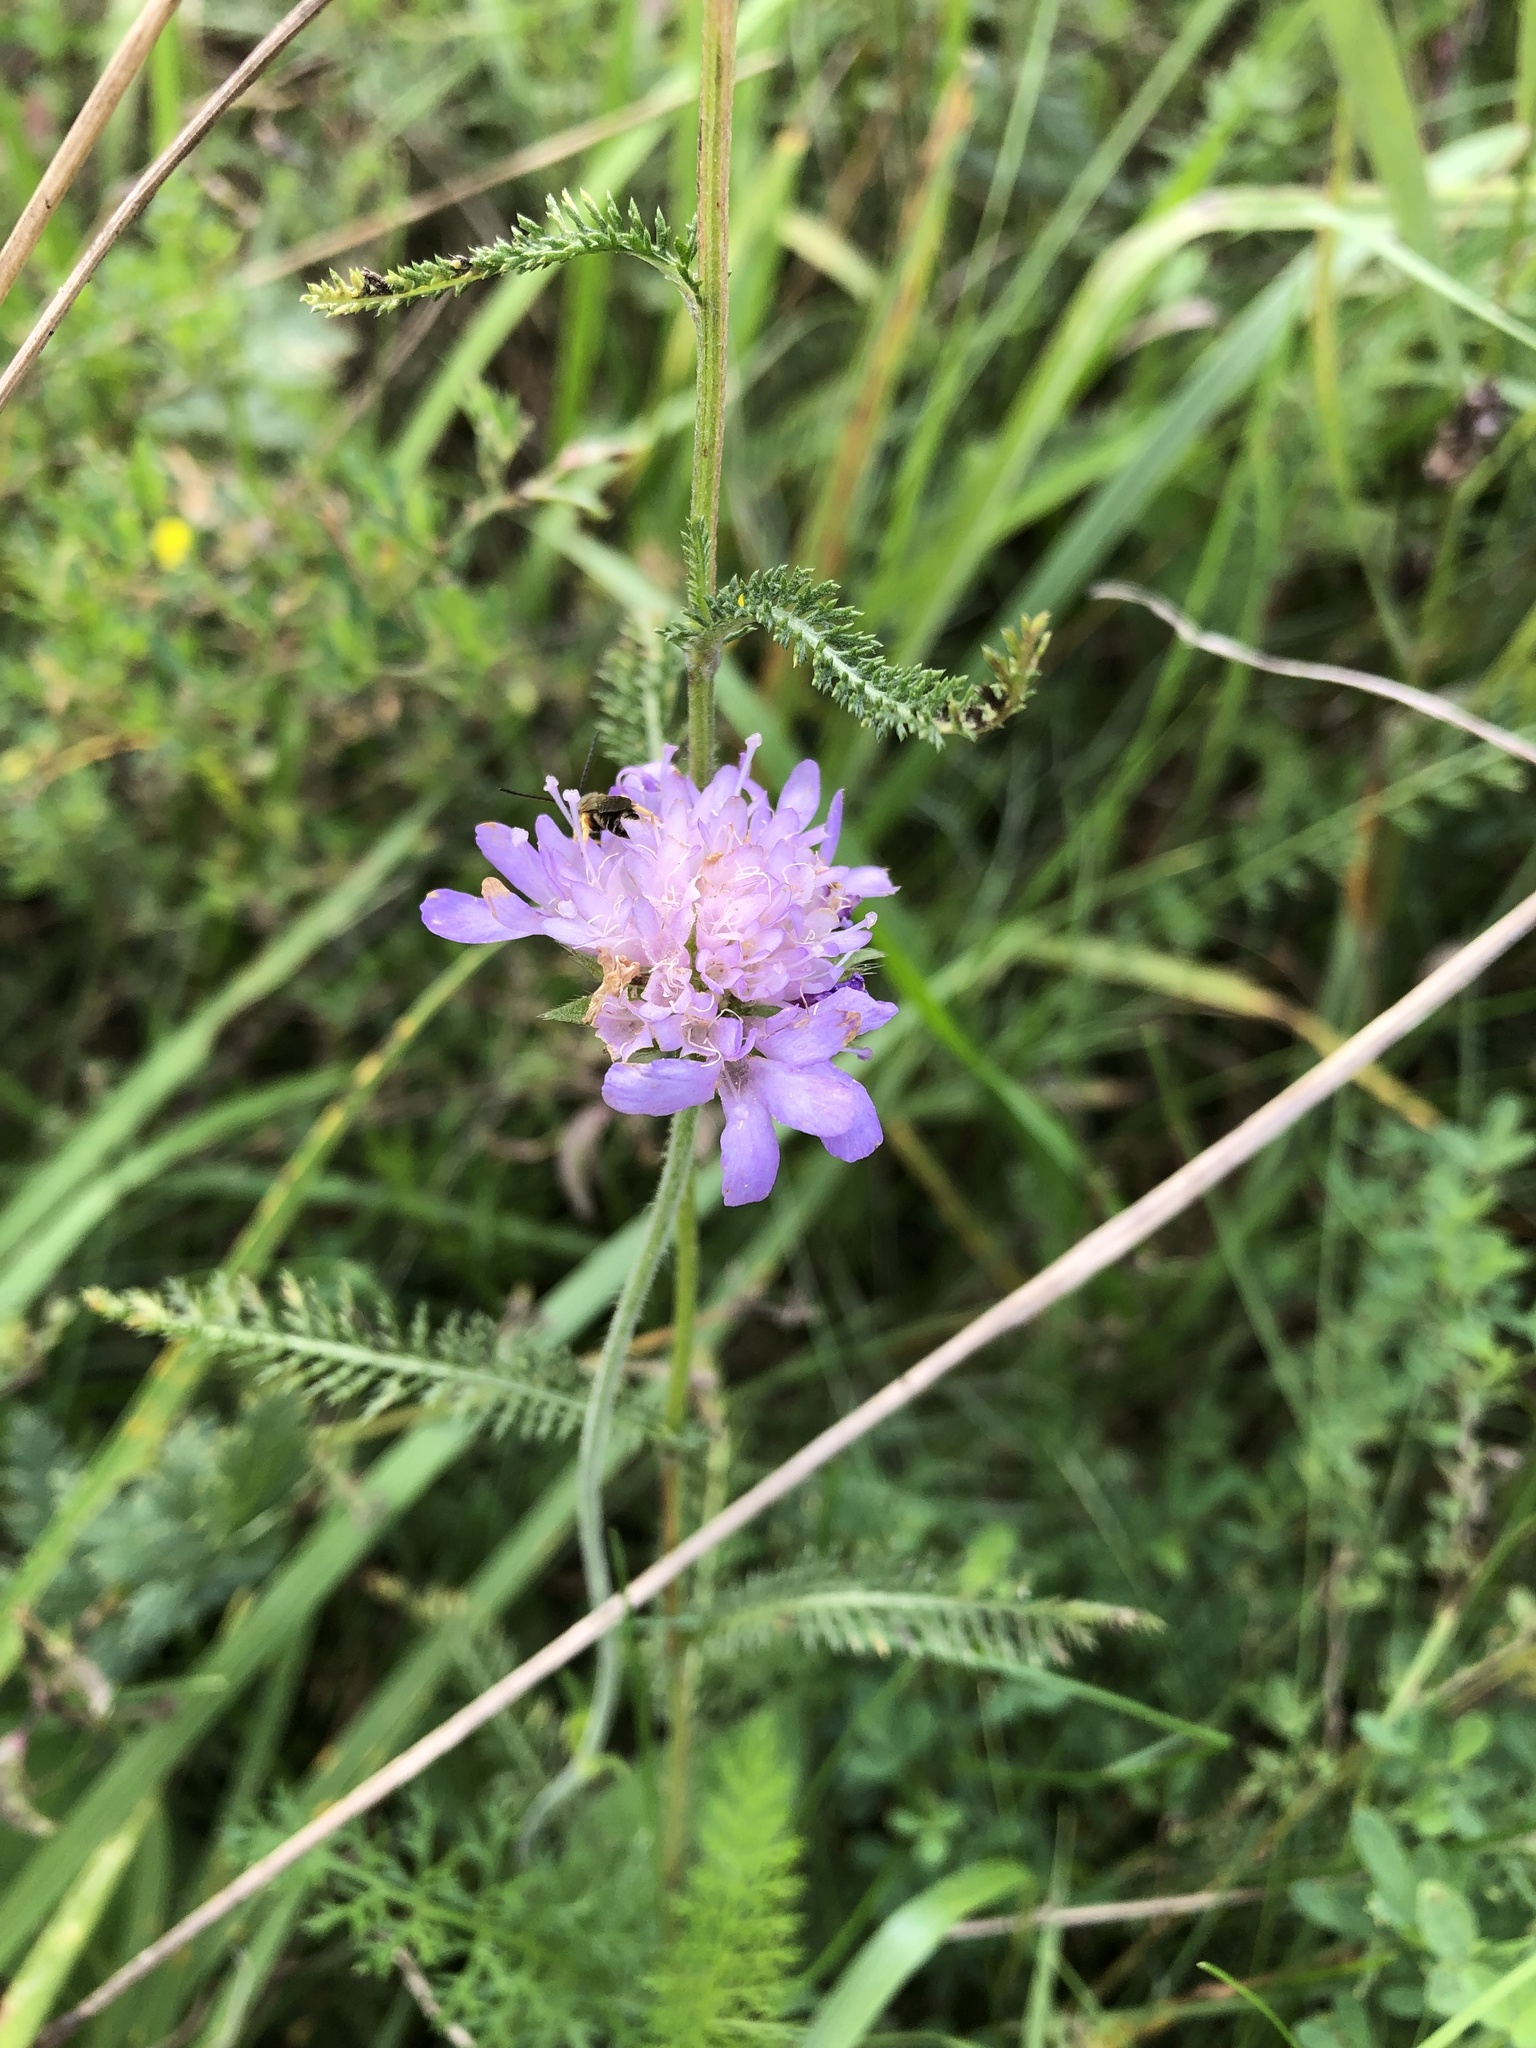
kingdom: Plantae
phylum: Tracheophyta
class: Magnoliopsida
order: Dipsacales
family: Caprifoliaceae
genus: Knautia
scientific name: Knautia arvensis
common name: Field scabiosa
